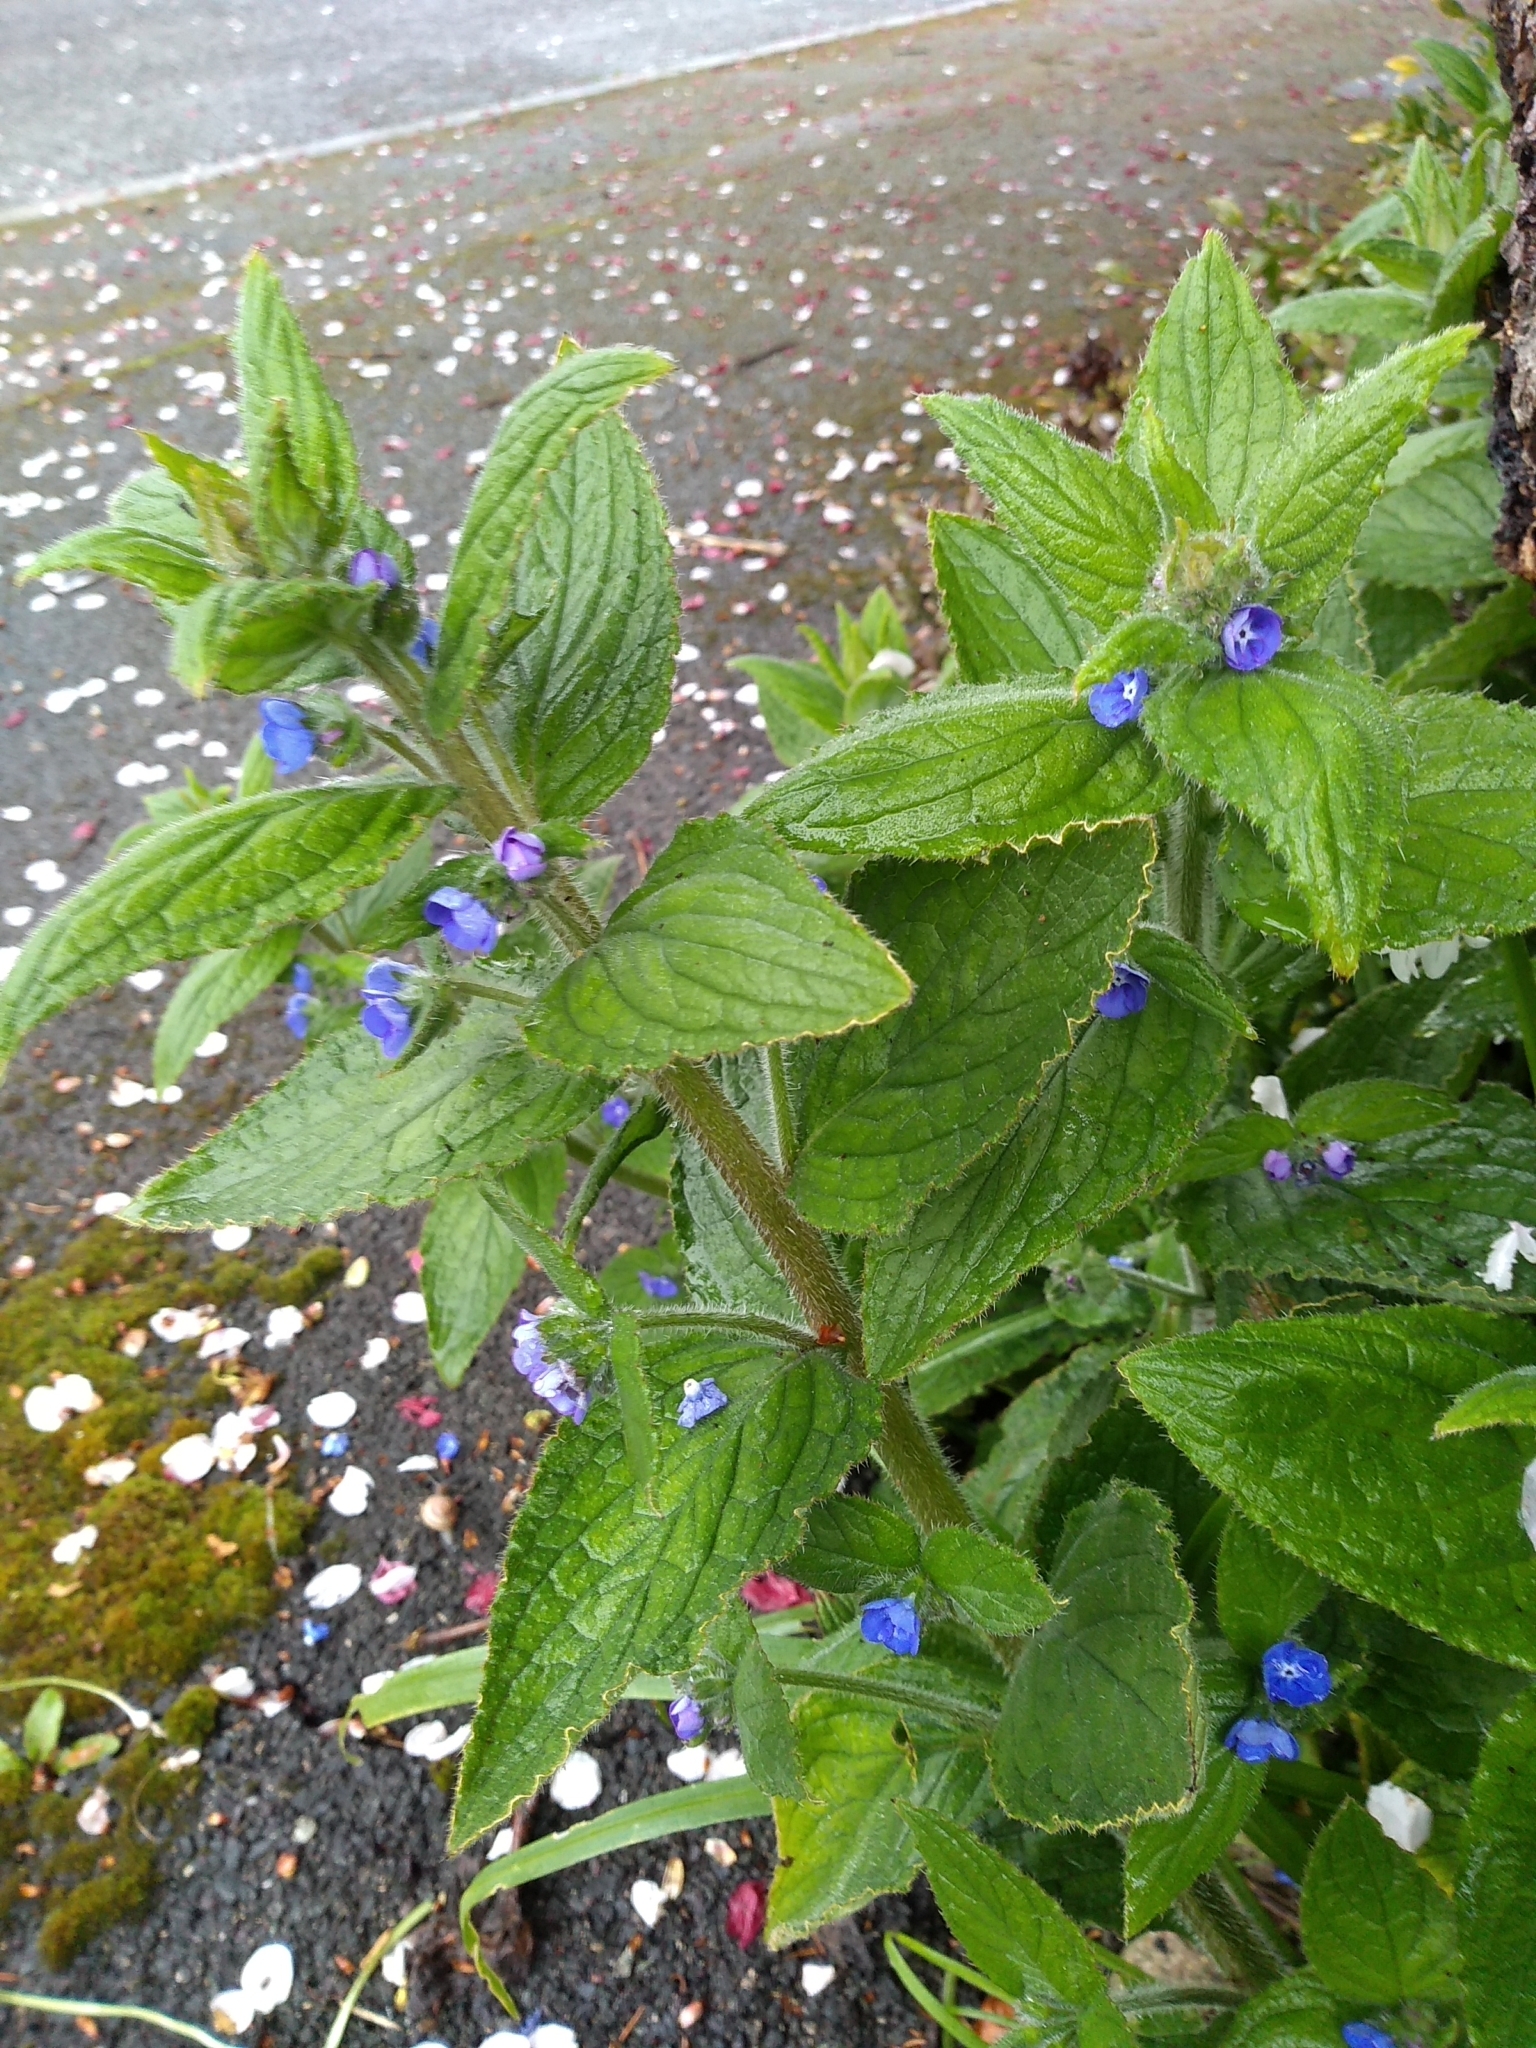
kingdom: Plantae
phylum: Tracheophyta
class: Magnoliopsida
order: Boraginales
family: Boraginaceae
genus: Pentaglottis
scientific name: Pentaglottis sempervirens
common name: Green alkanet
